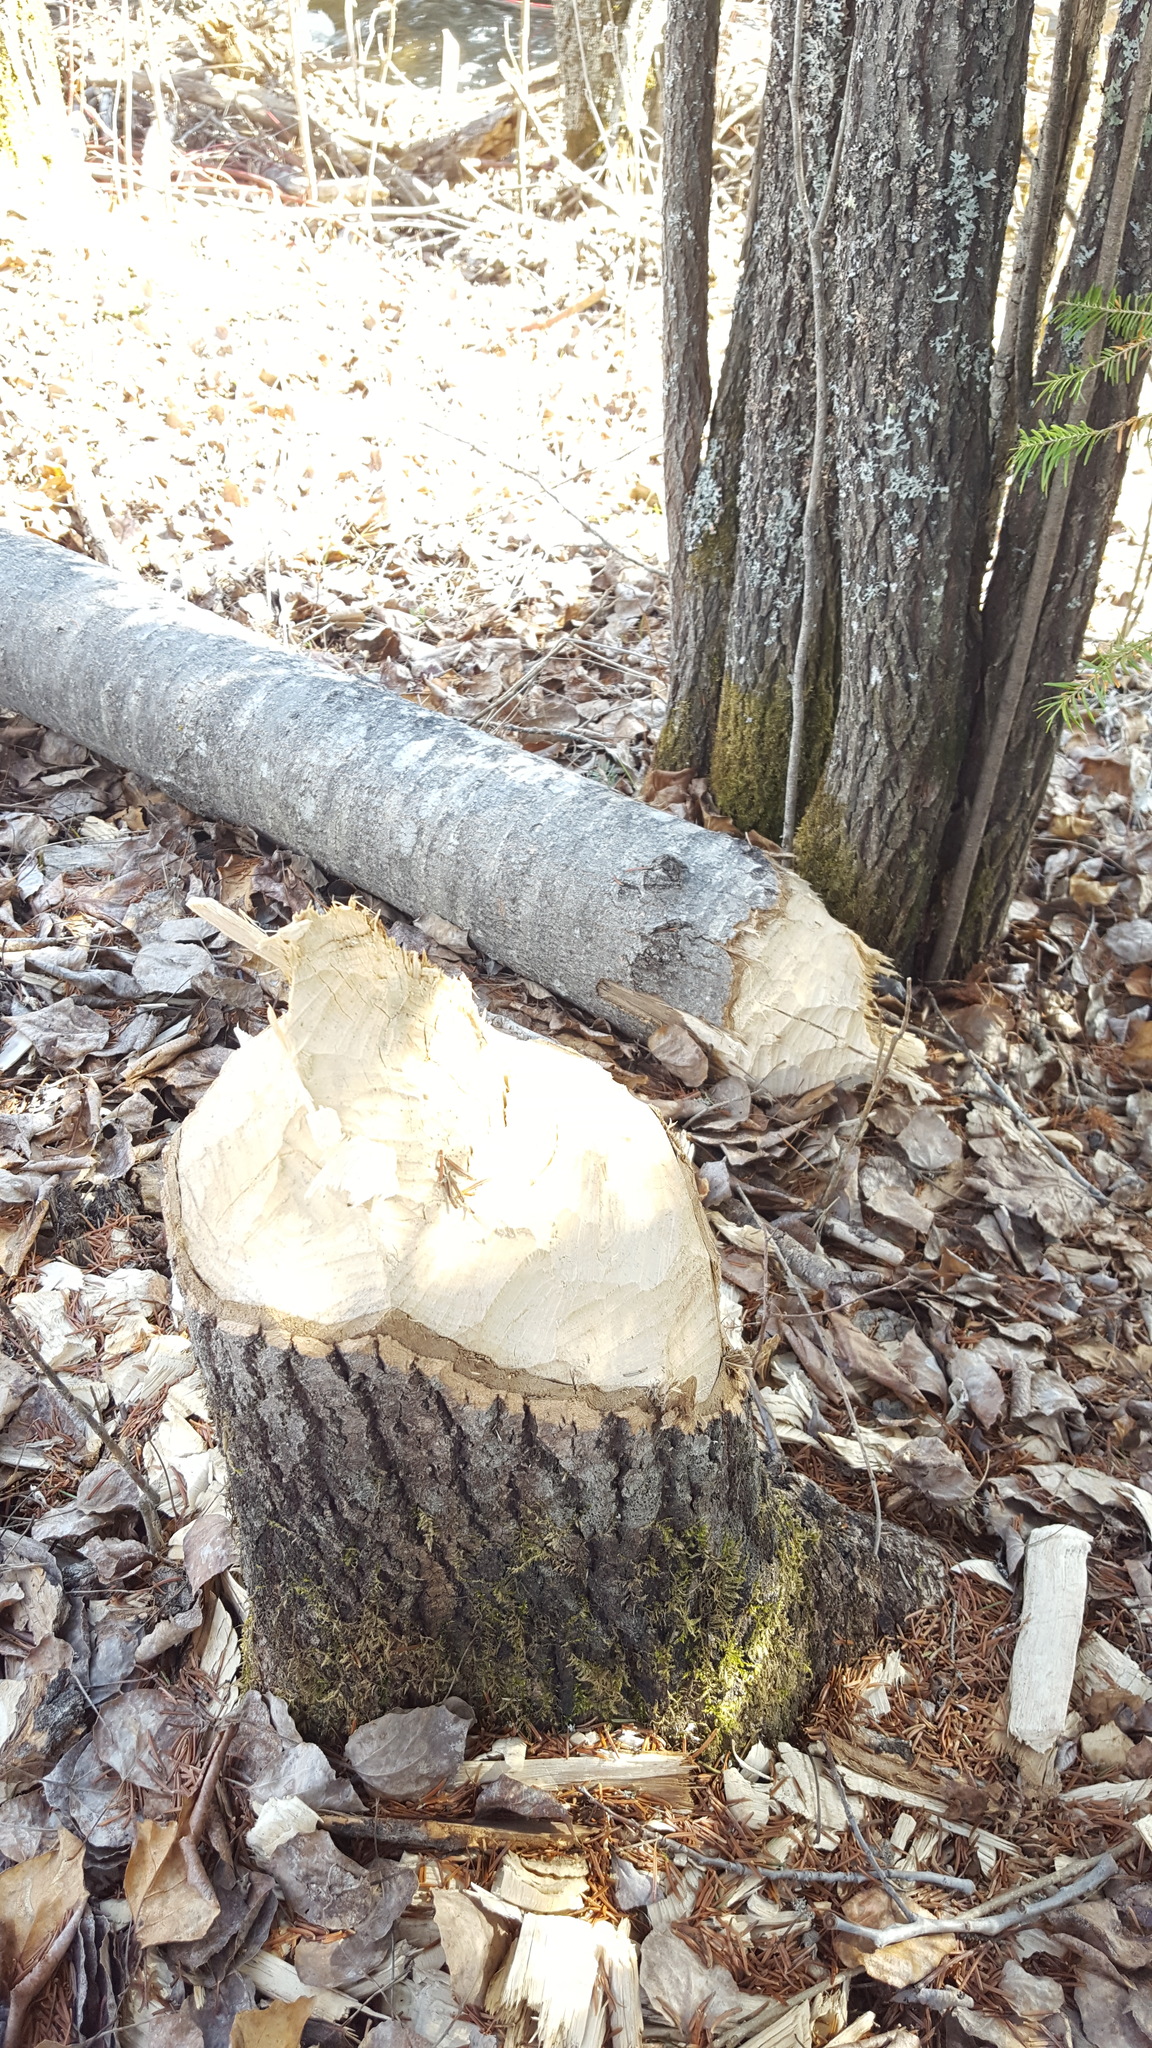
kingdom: Animalia
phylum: Chordata
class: Mammalia
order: Rodentia
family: Castoridae
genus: Castor
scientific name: Castor canadensis
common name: American beaver
